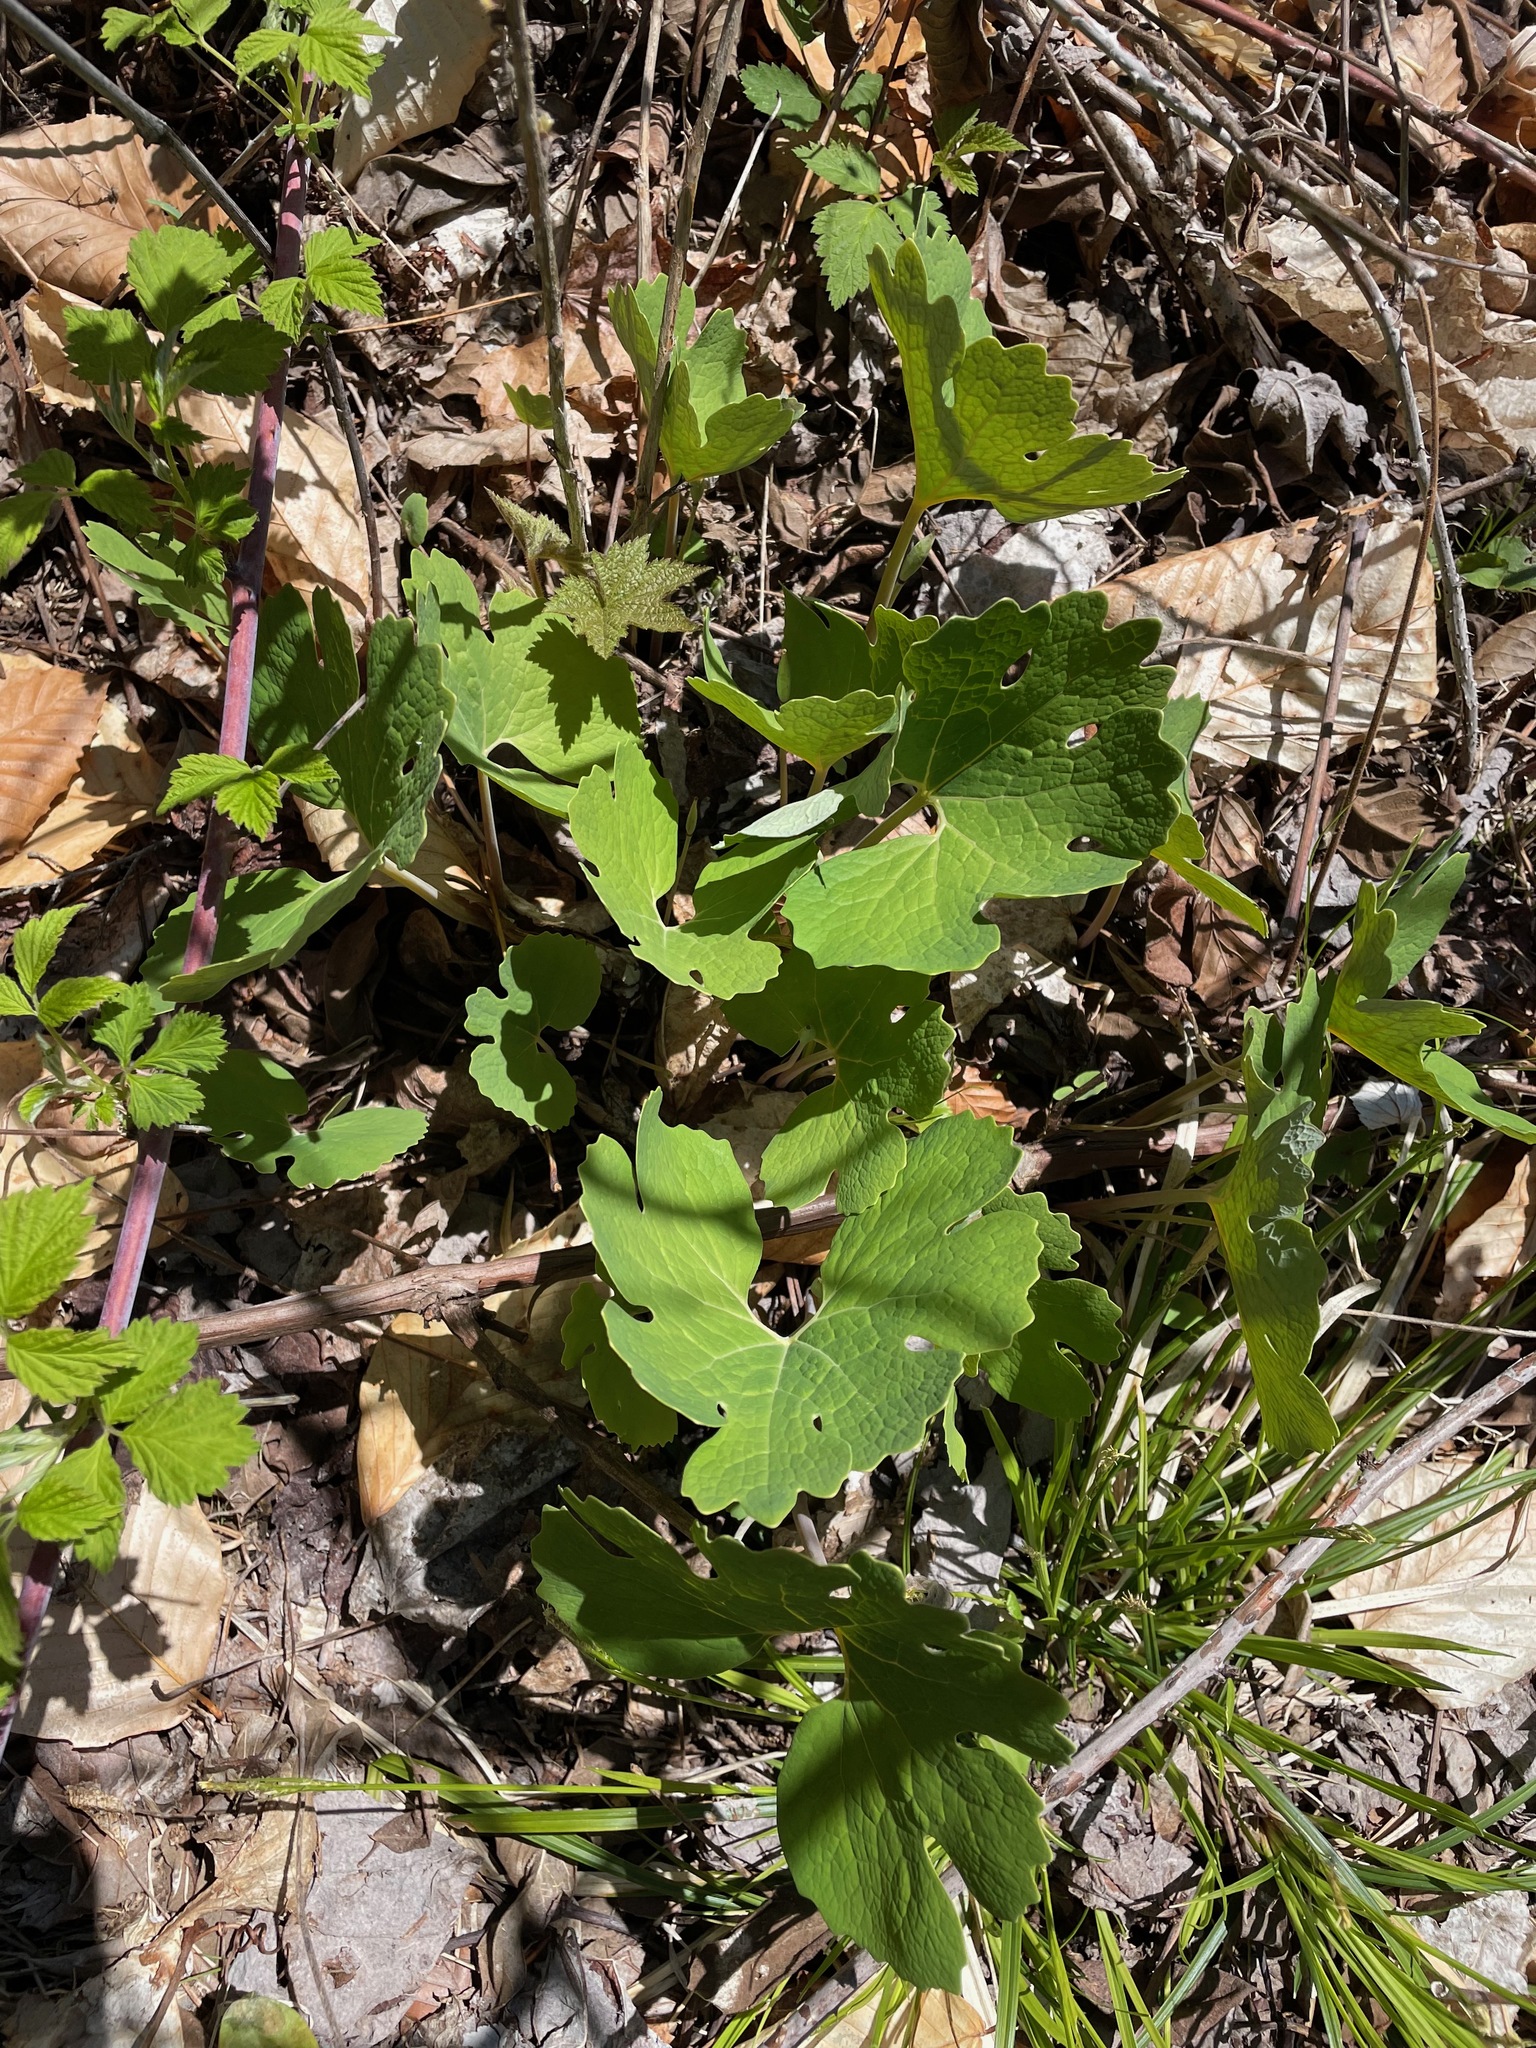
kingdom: Plantae
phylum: Tracheophyta
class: Magnoliopsida
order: Ranunculales
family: Papaveraceae
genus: Sanguinaria
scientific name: Sanguinaria canadensis
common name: Bloodroot
